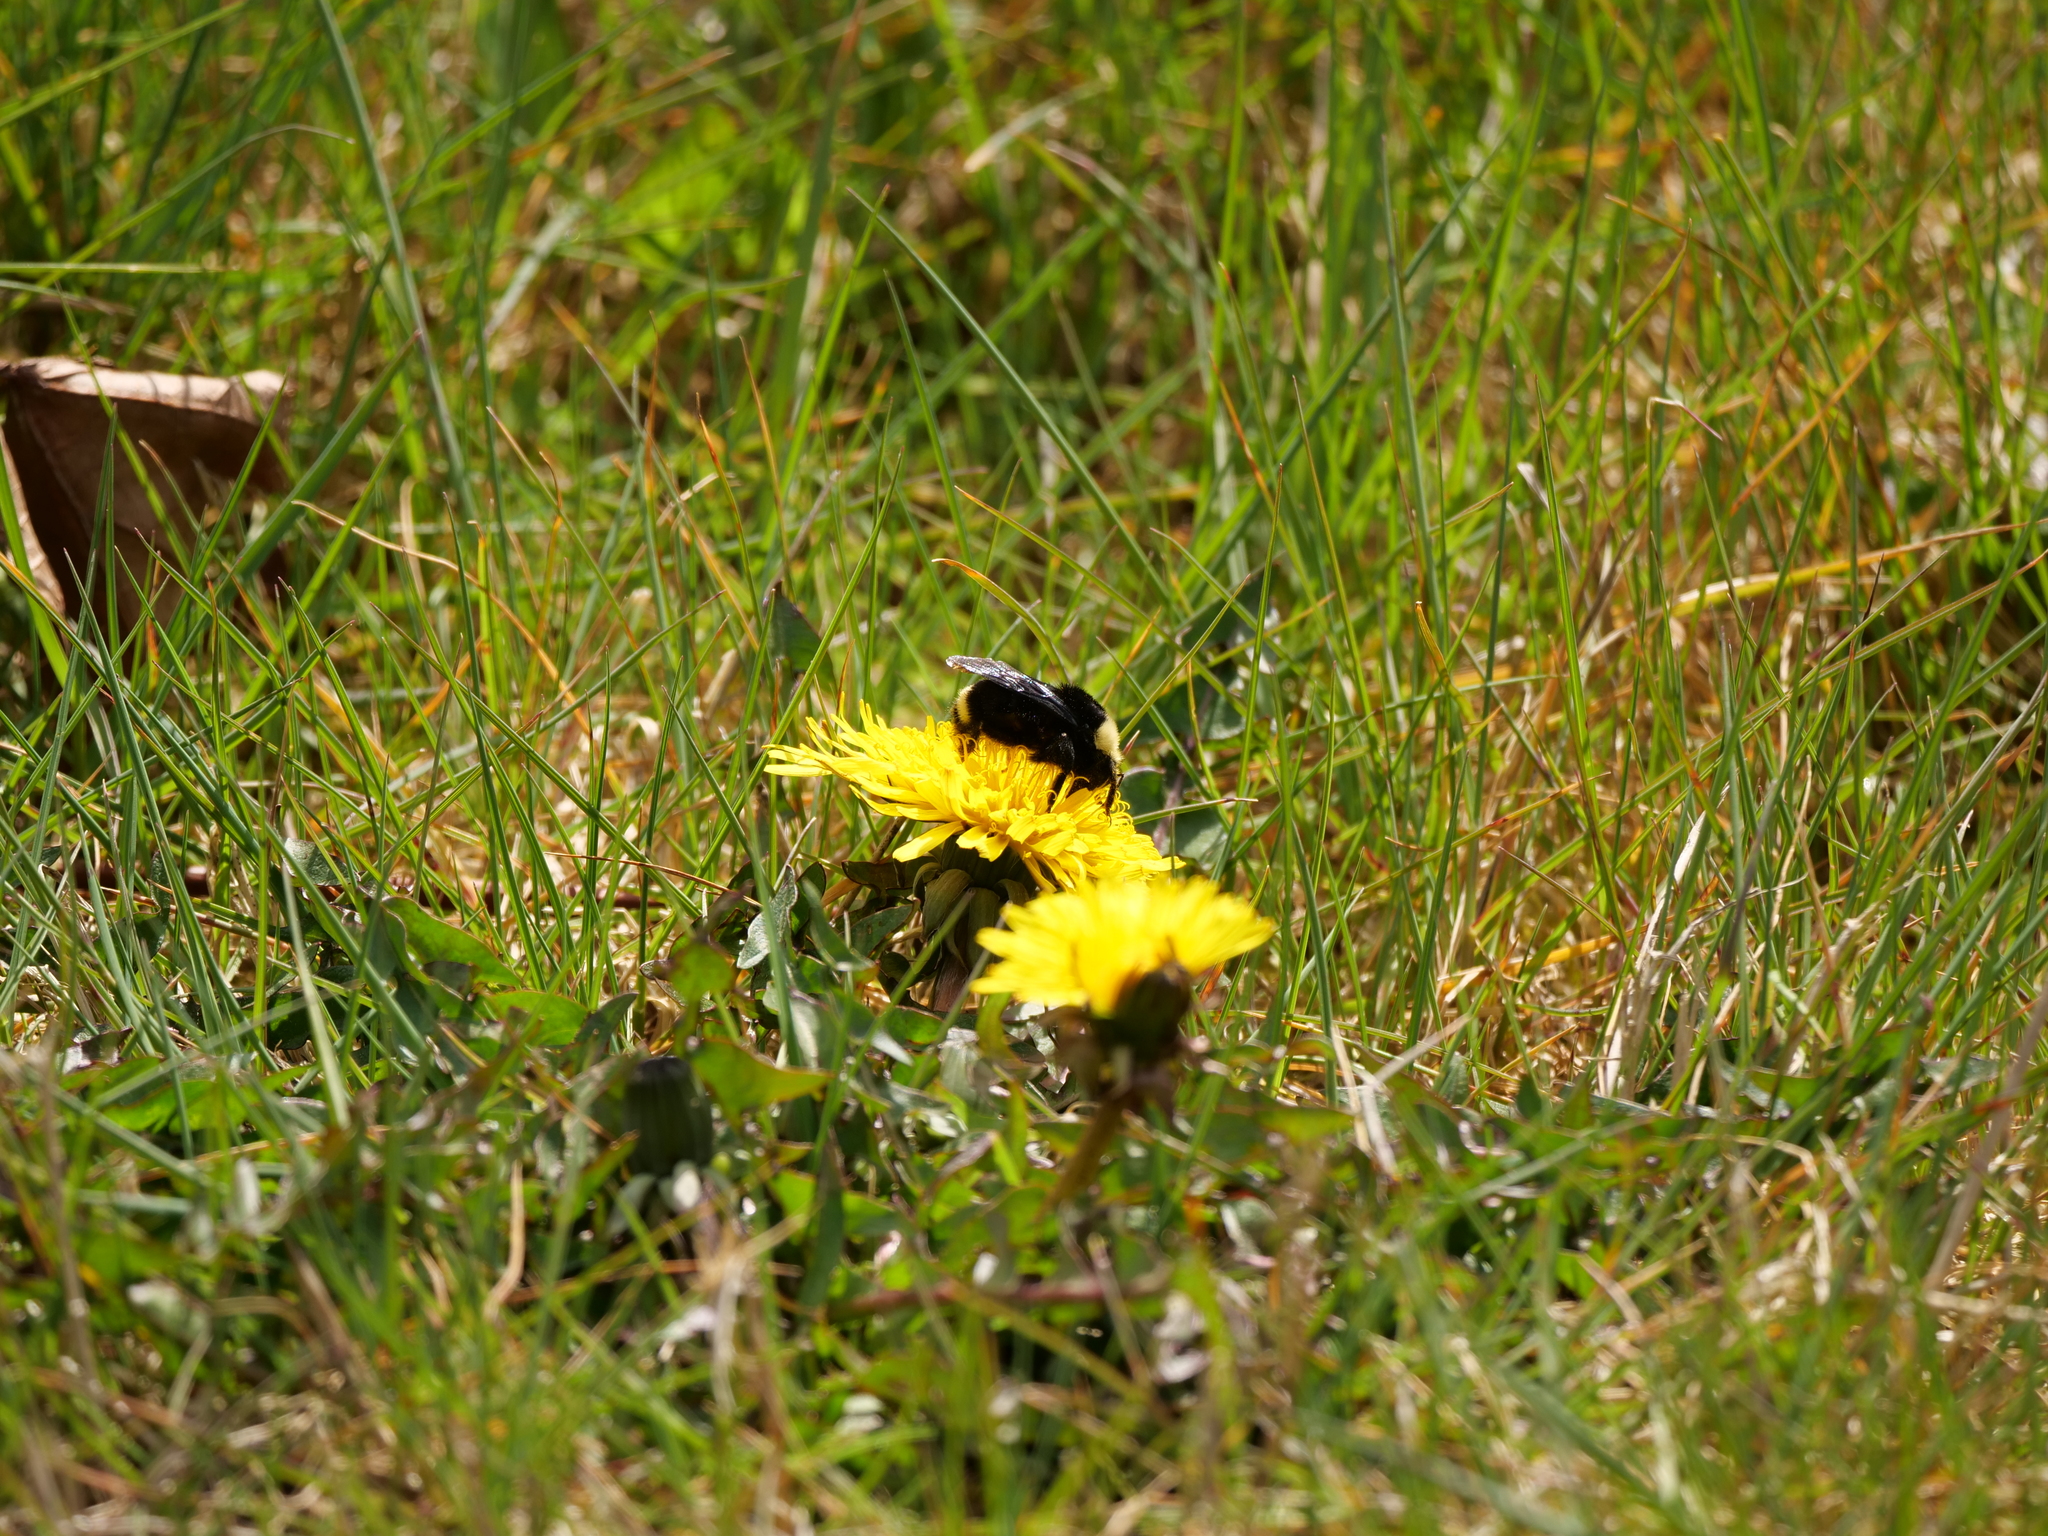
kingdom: Animalia
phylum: Arthropoda
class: Insecta
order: Hymenoptera
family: Apidae
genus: Bombus
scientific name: Bombus vosnesenskii
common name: Vosnesensky bumble bee
